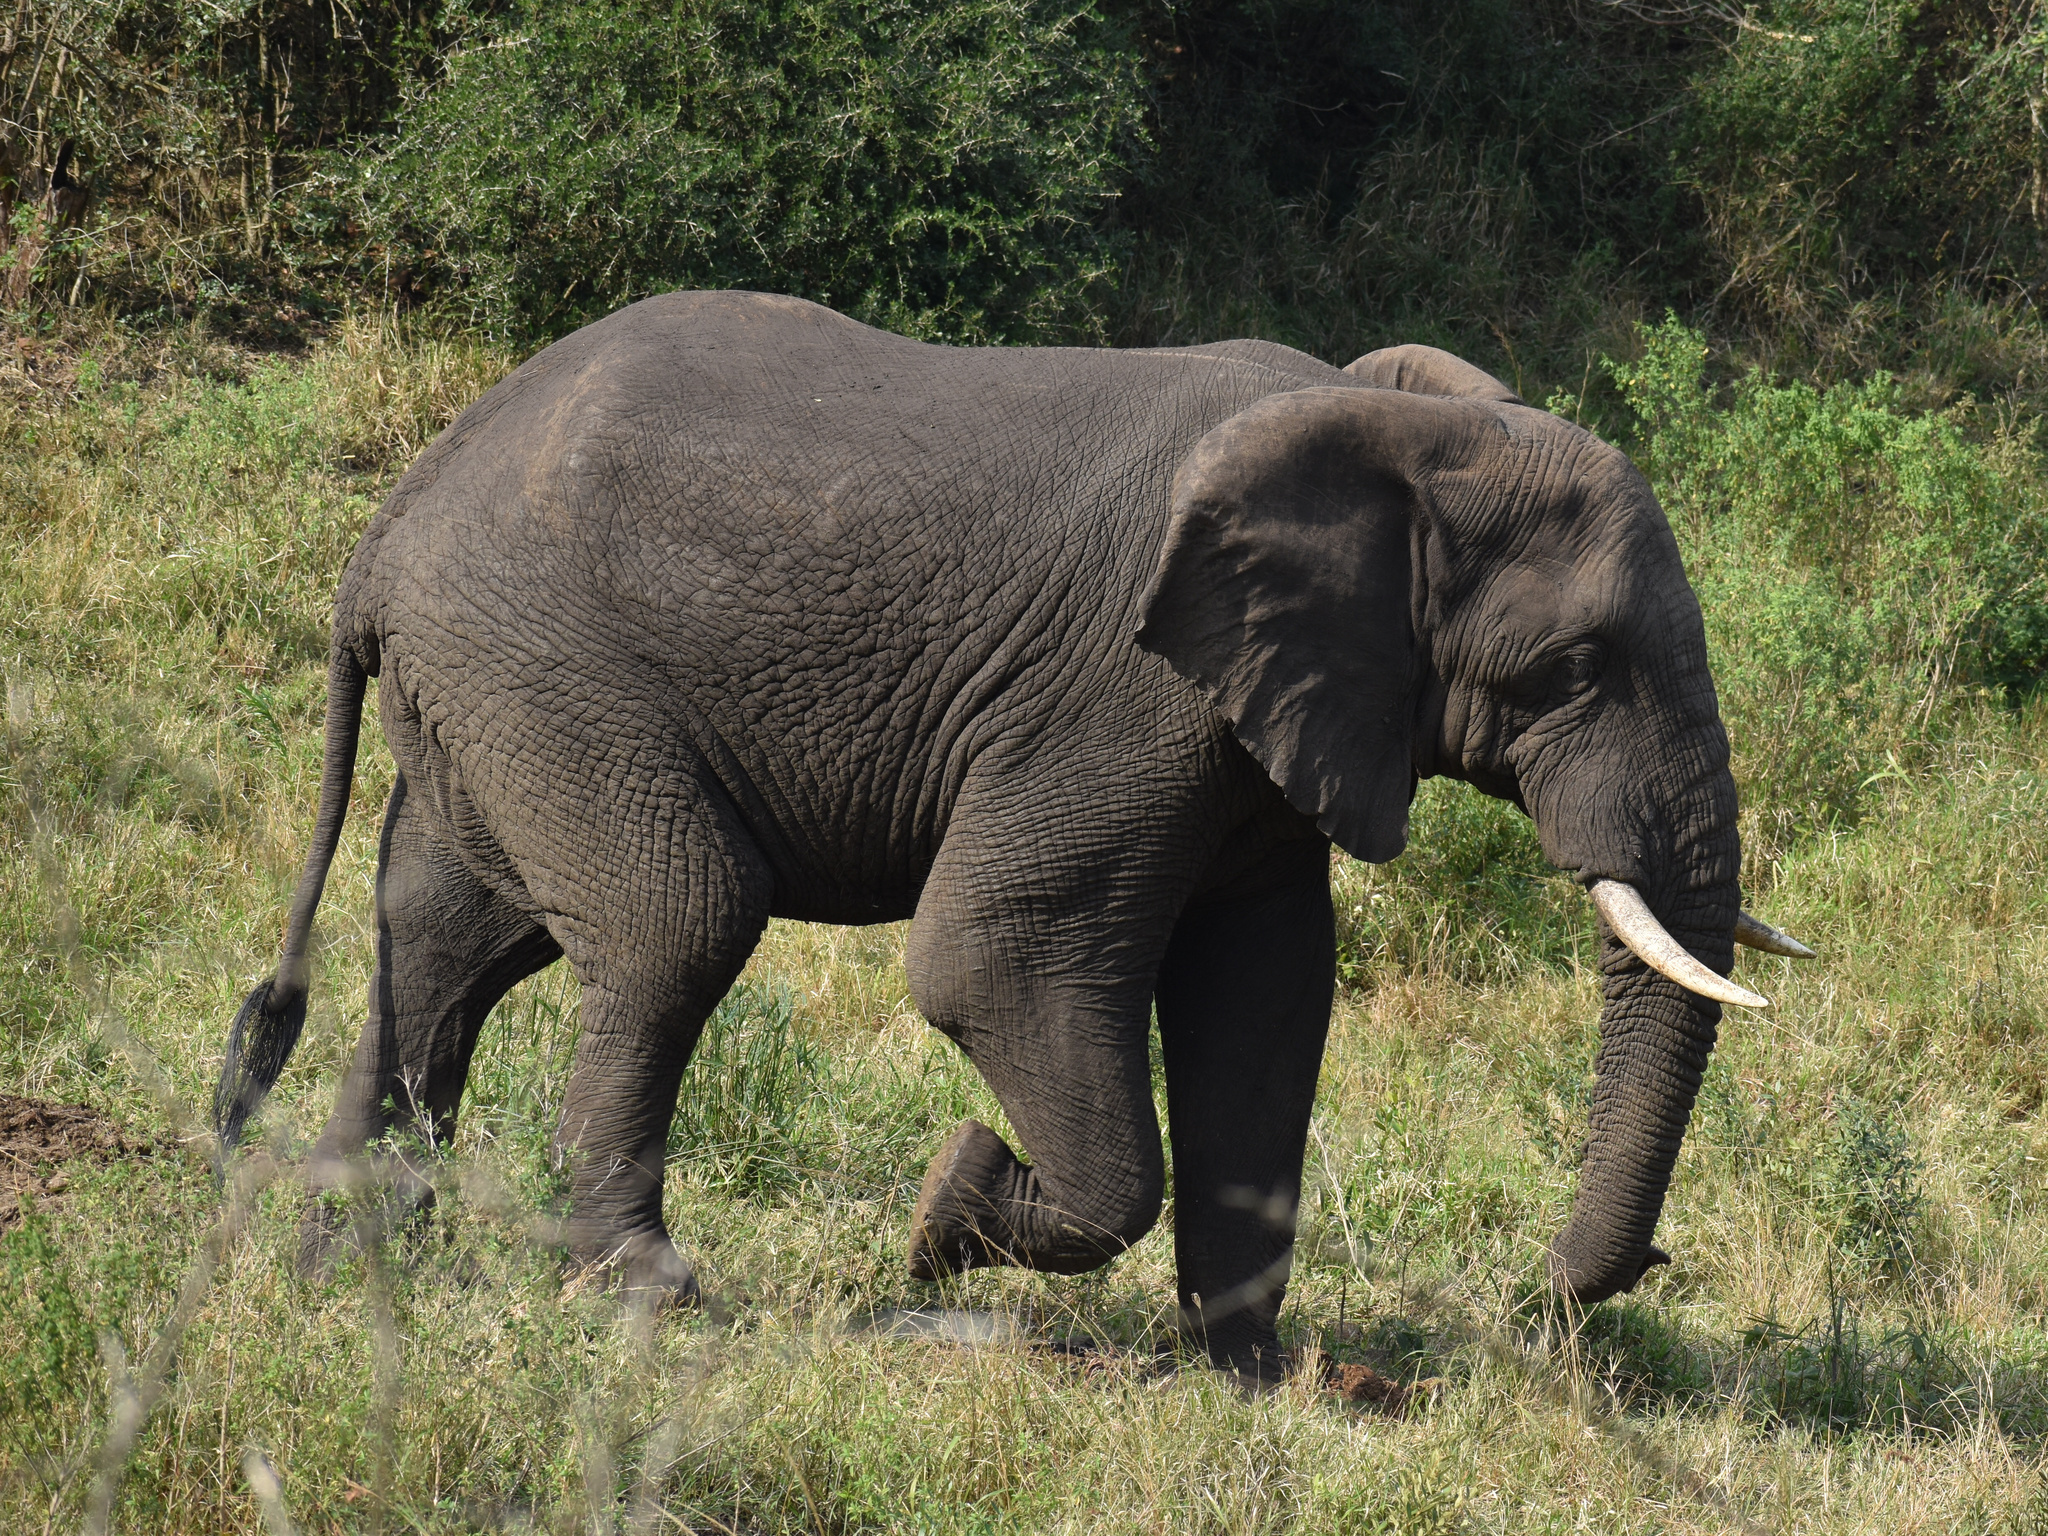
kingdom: Animalia
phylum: Chordata
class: Mammalia
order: Proboscidea
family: Elephantidae
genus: Loxodonta
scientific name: Loxodonta africana
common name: African elephant
